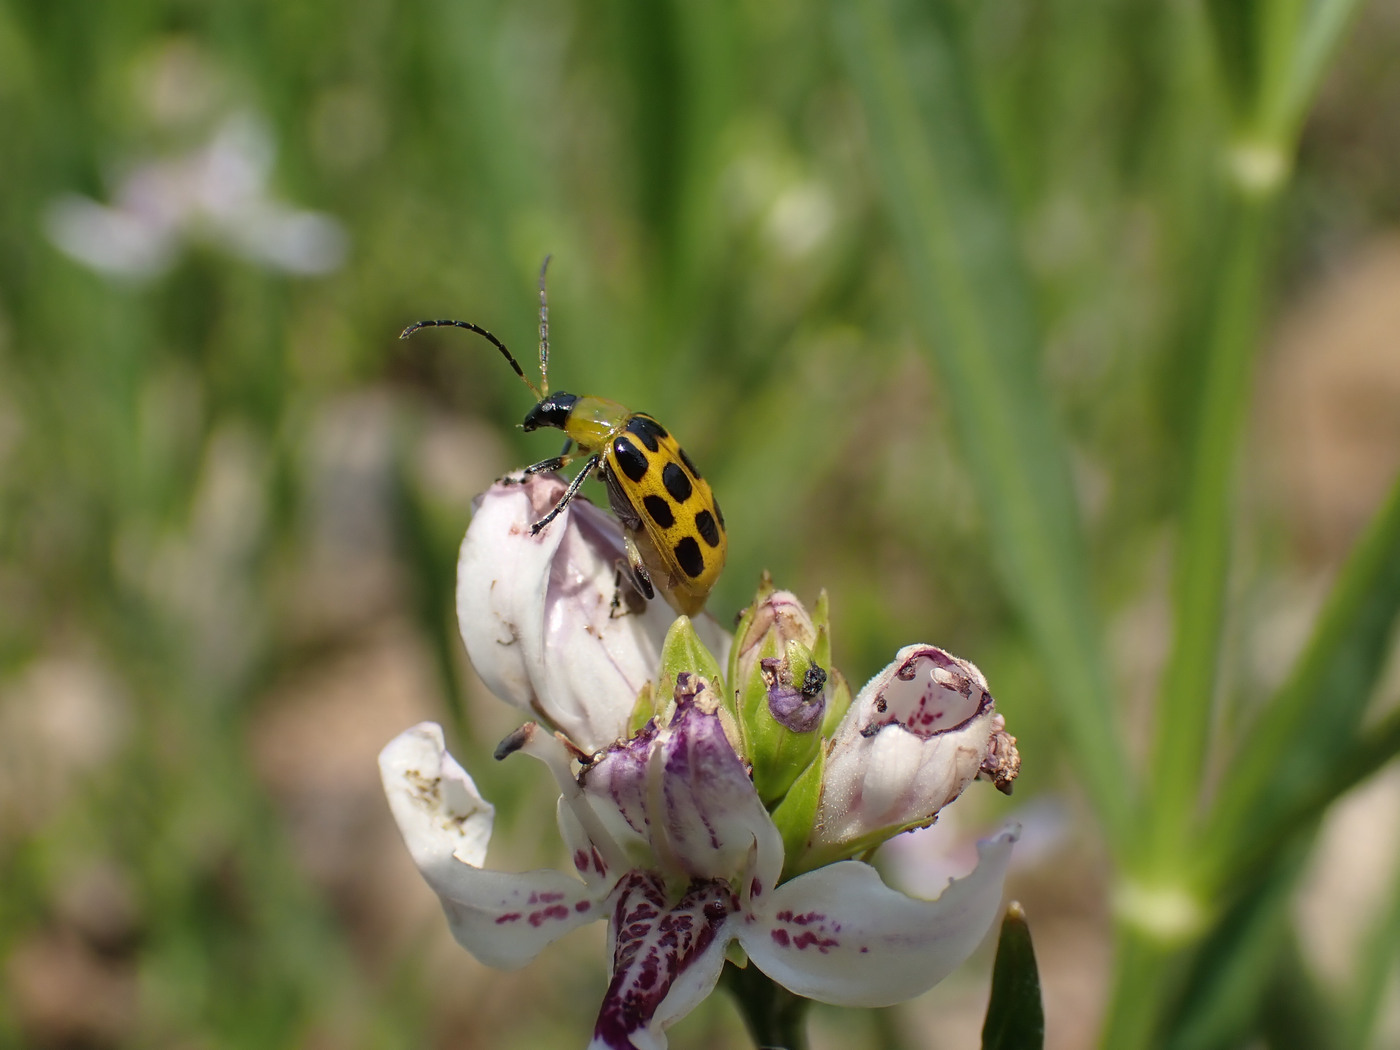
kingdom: Animalia
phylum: Arthropoda
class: Insecta
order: Coleoptera
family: Chrysomelidae
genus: Diabrotica
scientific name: Diabrotica undecimpunctata
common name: Spotted cucumber beetle
